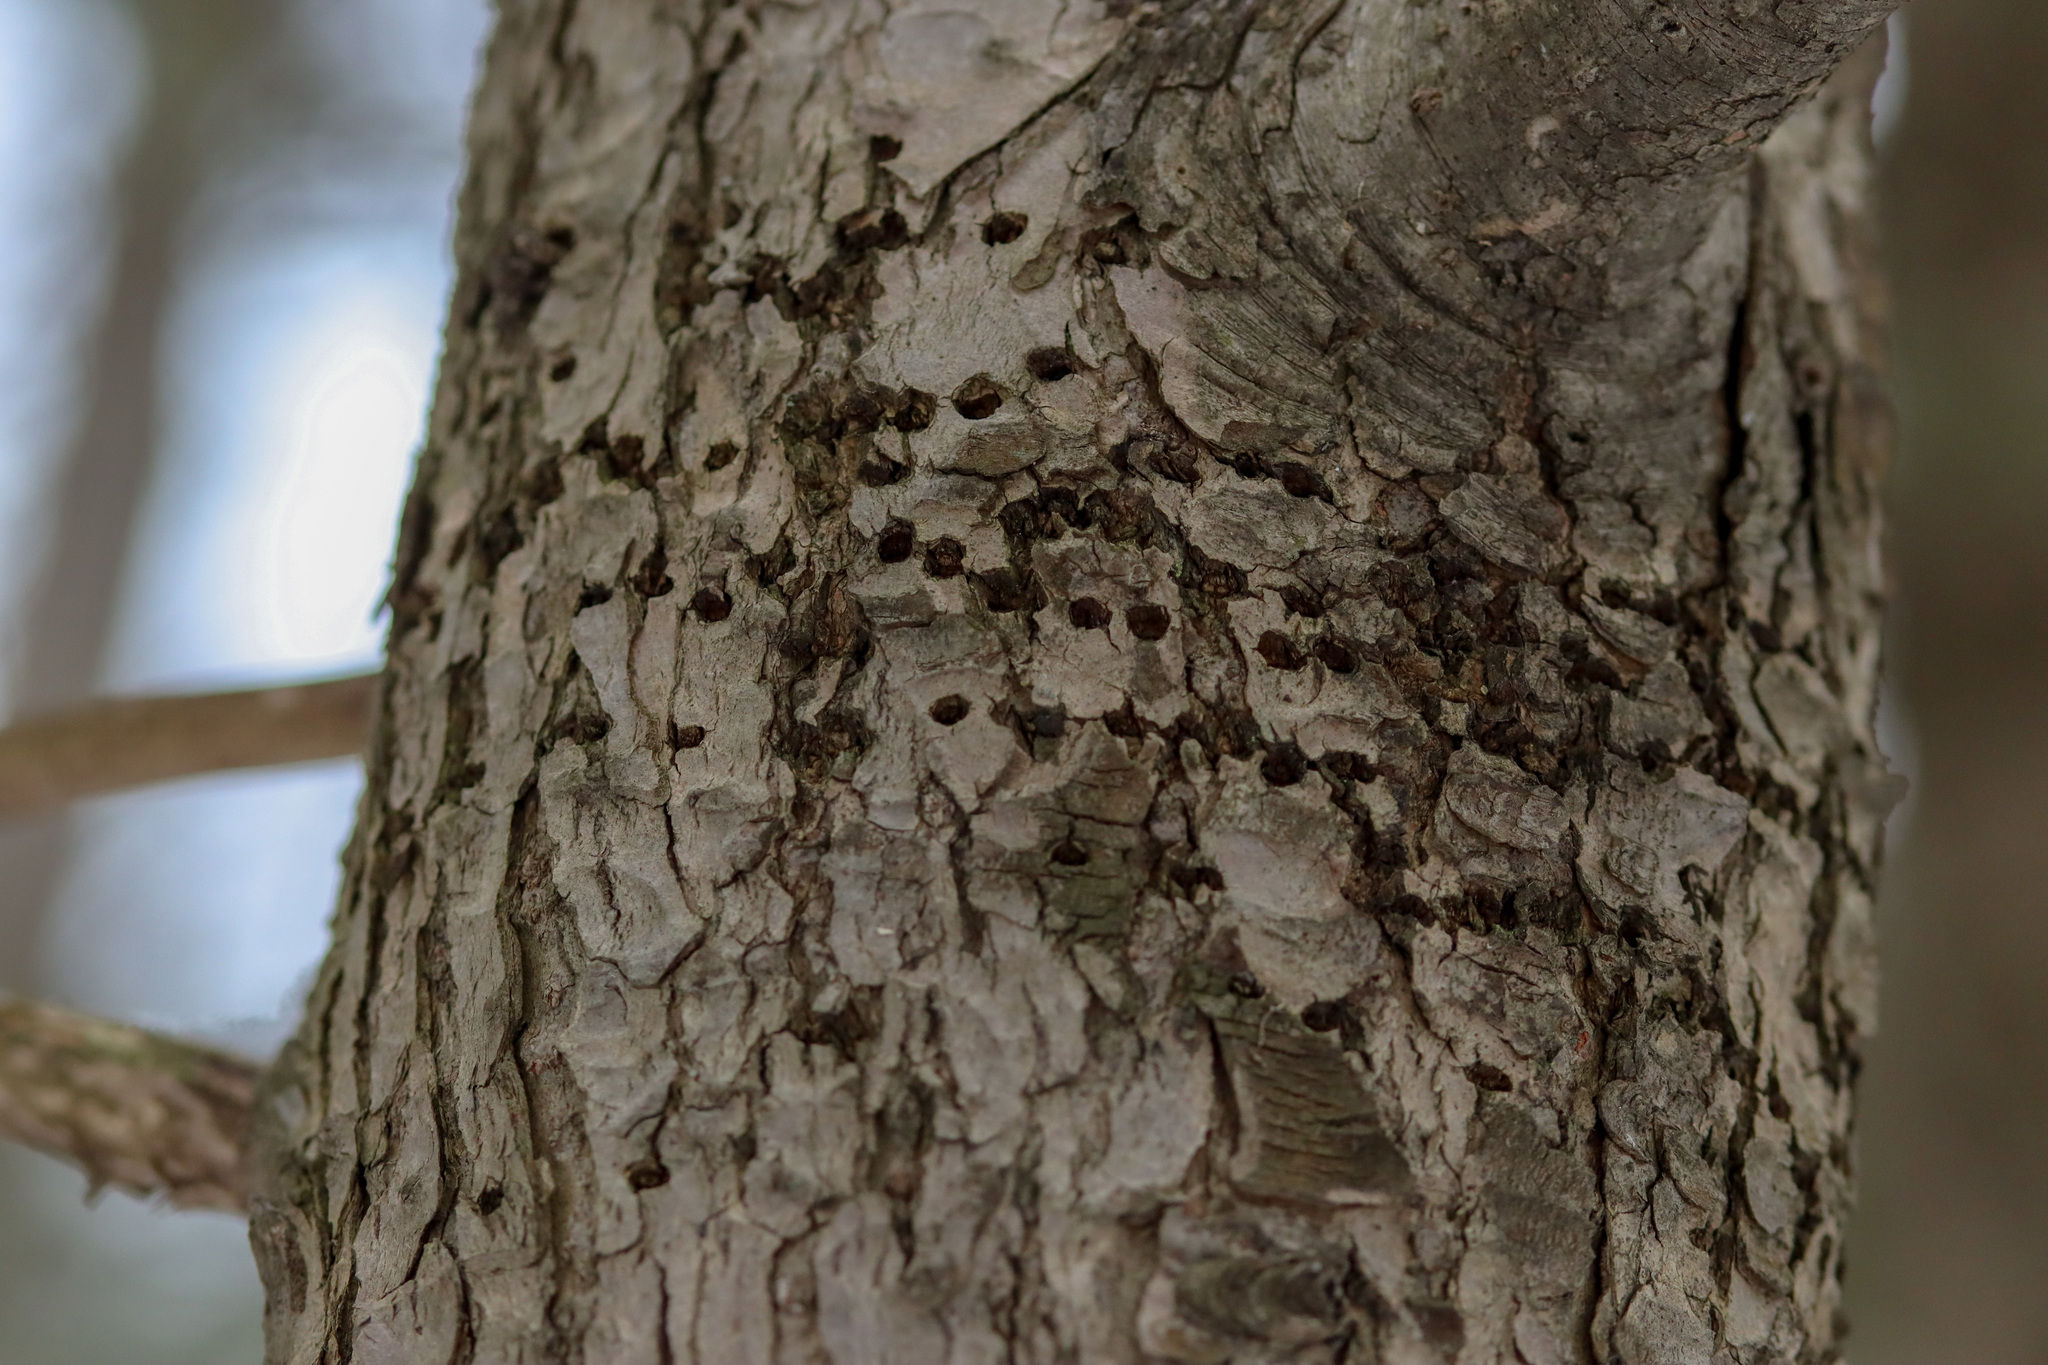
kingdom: Animalia
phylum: Chordata
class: Aves
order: Piciformes
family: Picidae
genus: Sphyrapicus
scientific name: Sphyrapicus varius
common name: Yellow-bellied sapsucker
